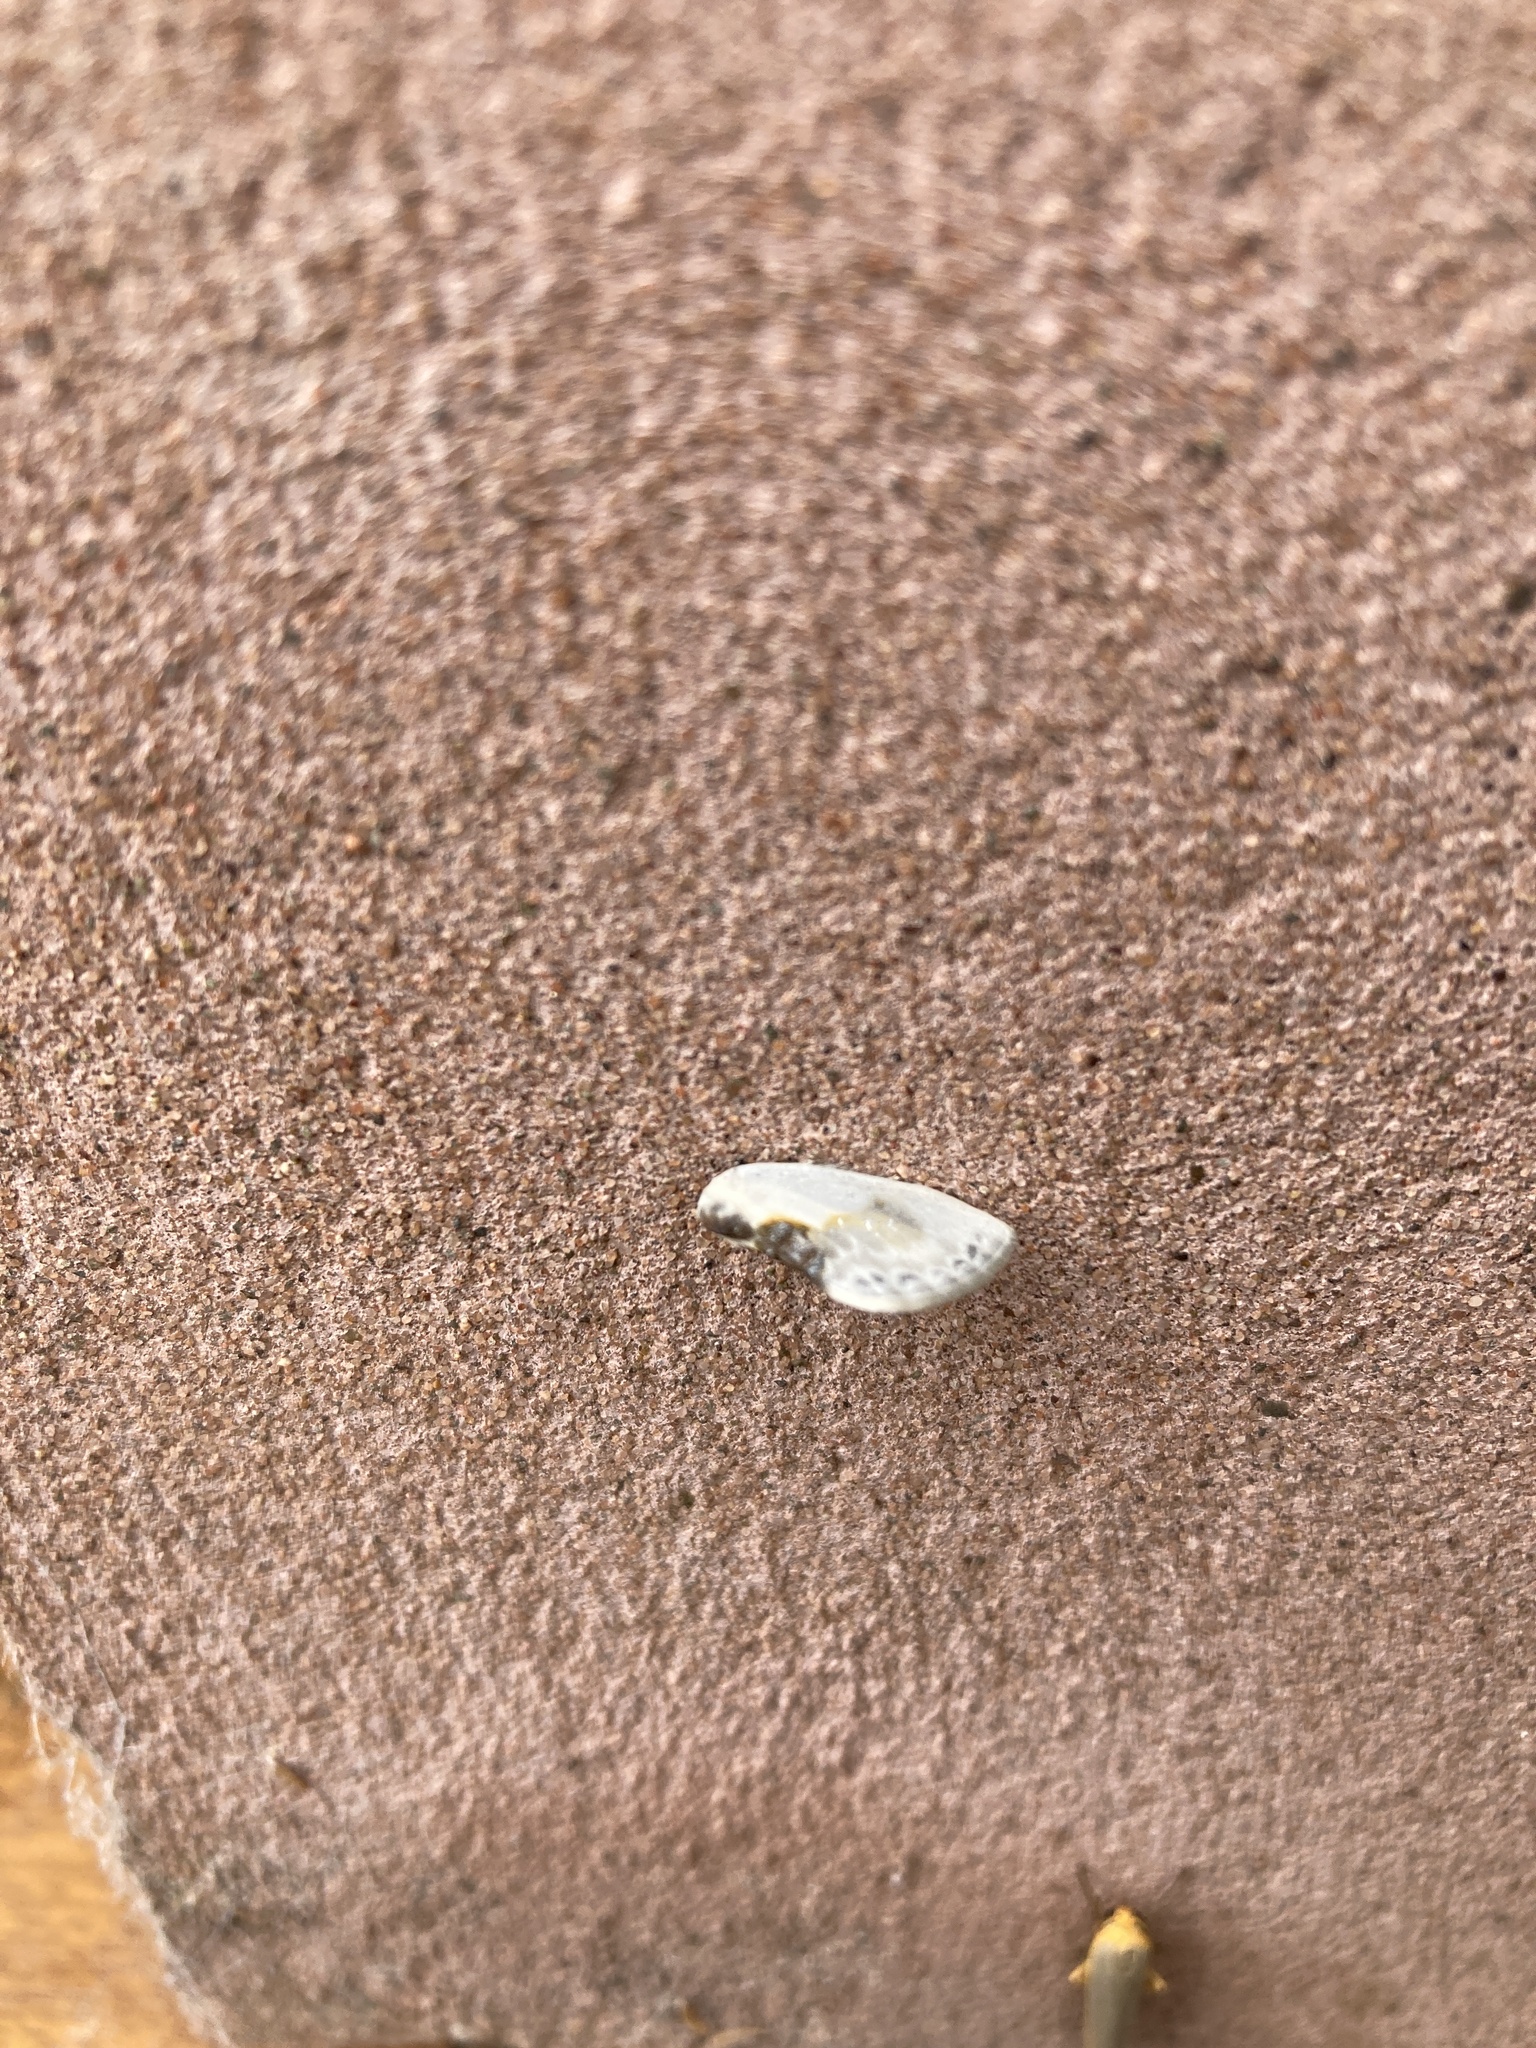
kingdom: Animalia
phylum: Arthropoda
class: Insecta
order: Lepidoptera
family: Drepanidae
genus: Cilix
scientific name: Cilix glaucata
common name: Chinese character
